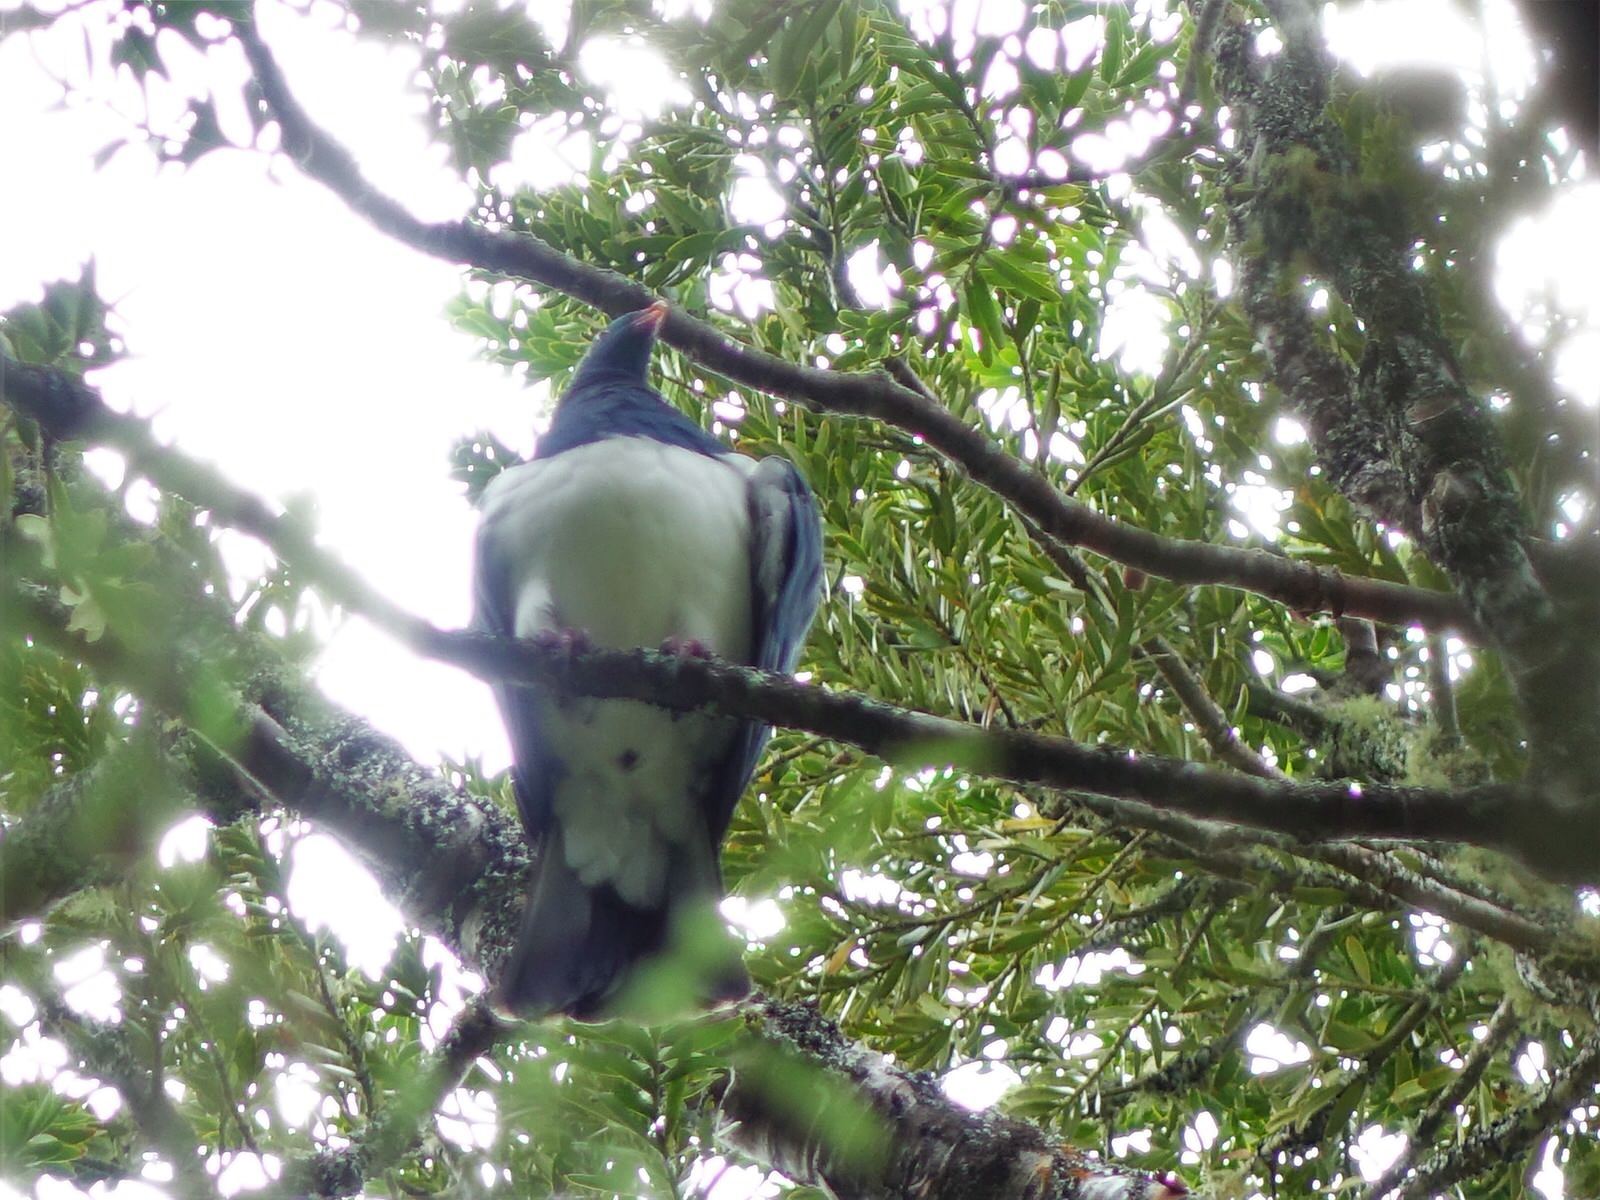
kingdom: Animalia
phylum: Chordata
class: Aves
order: Columbiformes
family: Columbidae
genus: Hemiphaga
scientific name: Hemiphaga novaeseelandiae
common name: New zealand pigeon
